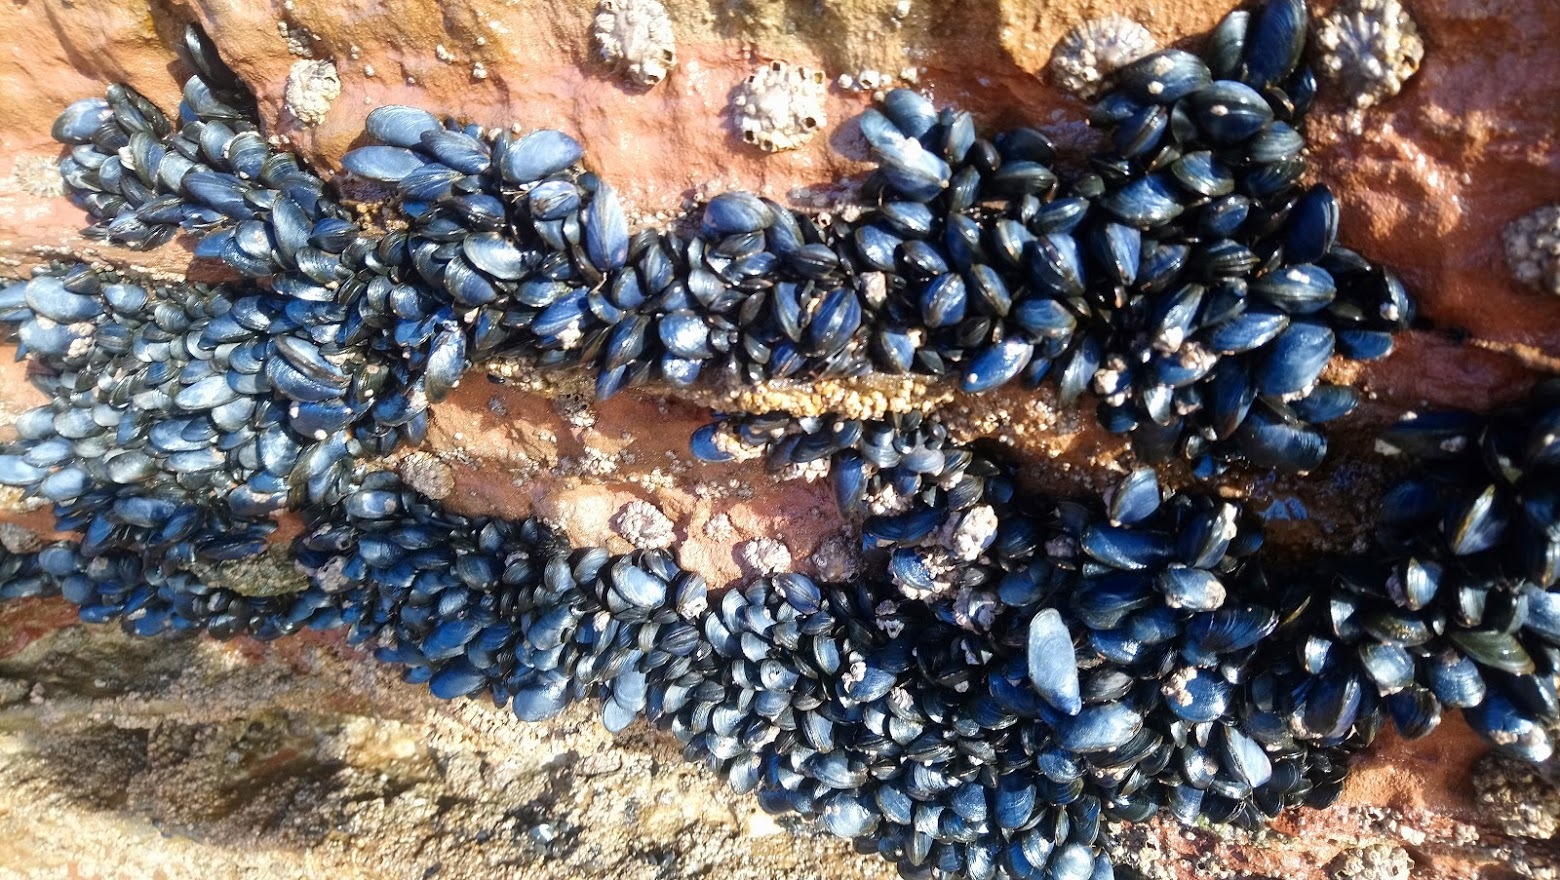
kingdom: Animalia
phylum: Mollusca
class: Bivalvia
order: Mytilida
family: Mytilidae
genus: Mytilus
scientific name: Mytilus edulis
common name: Blue mussel
